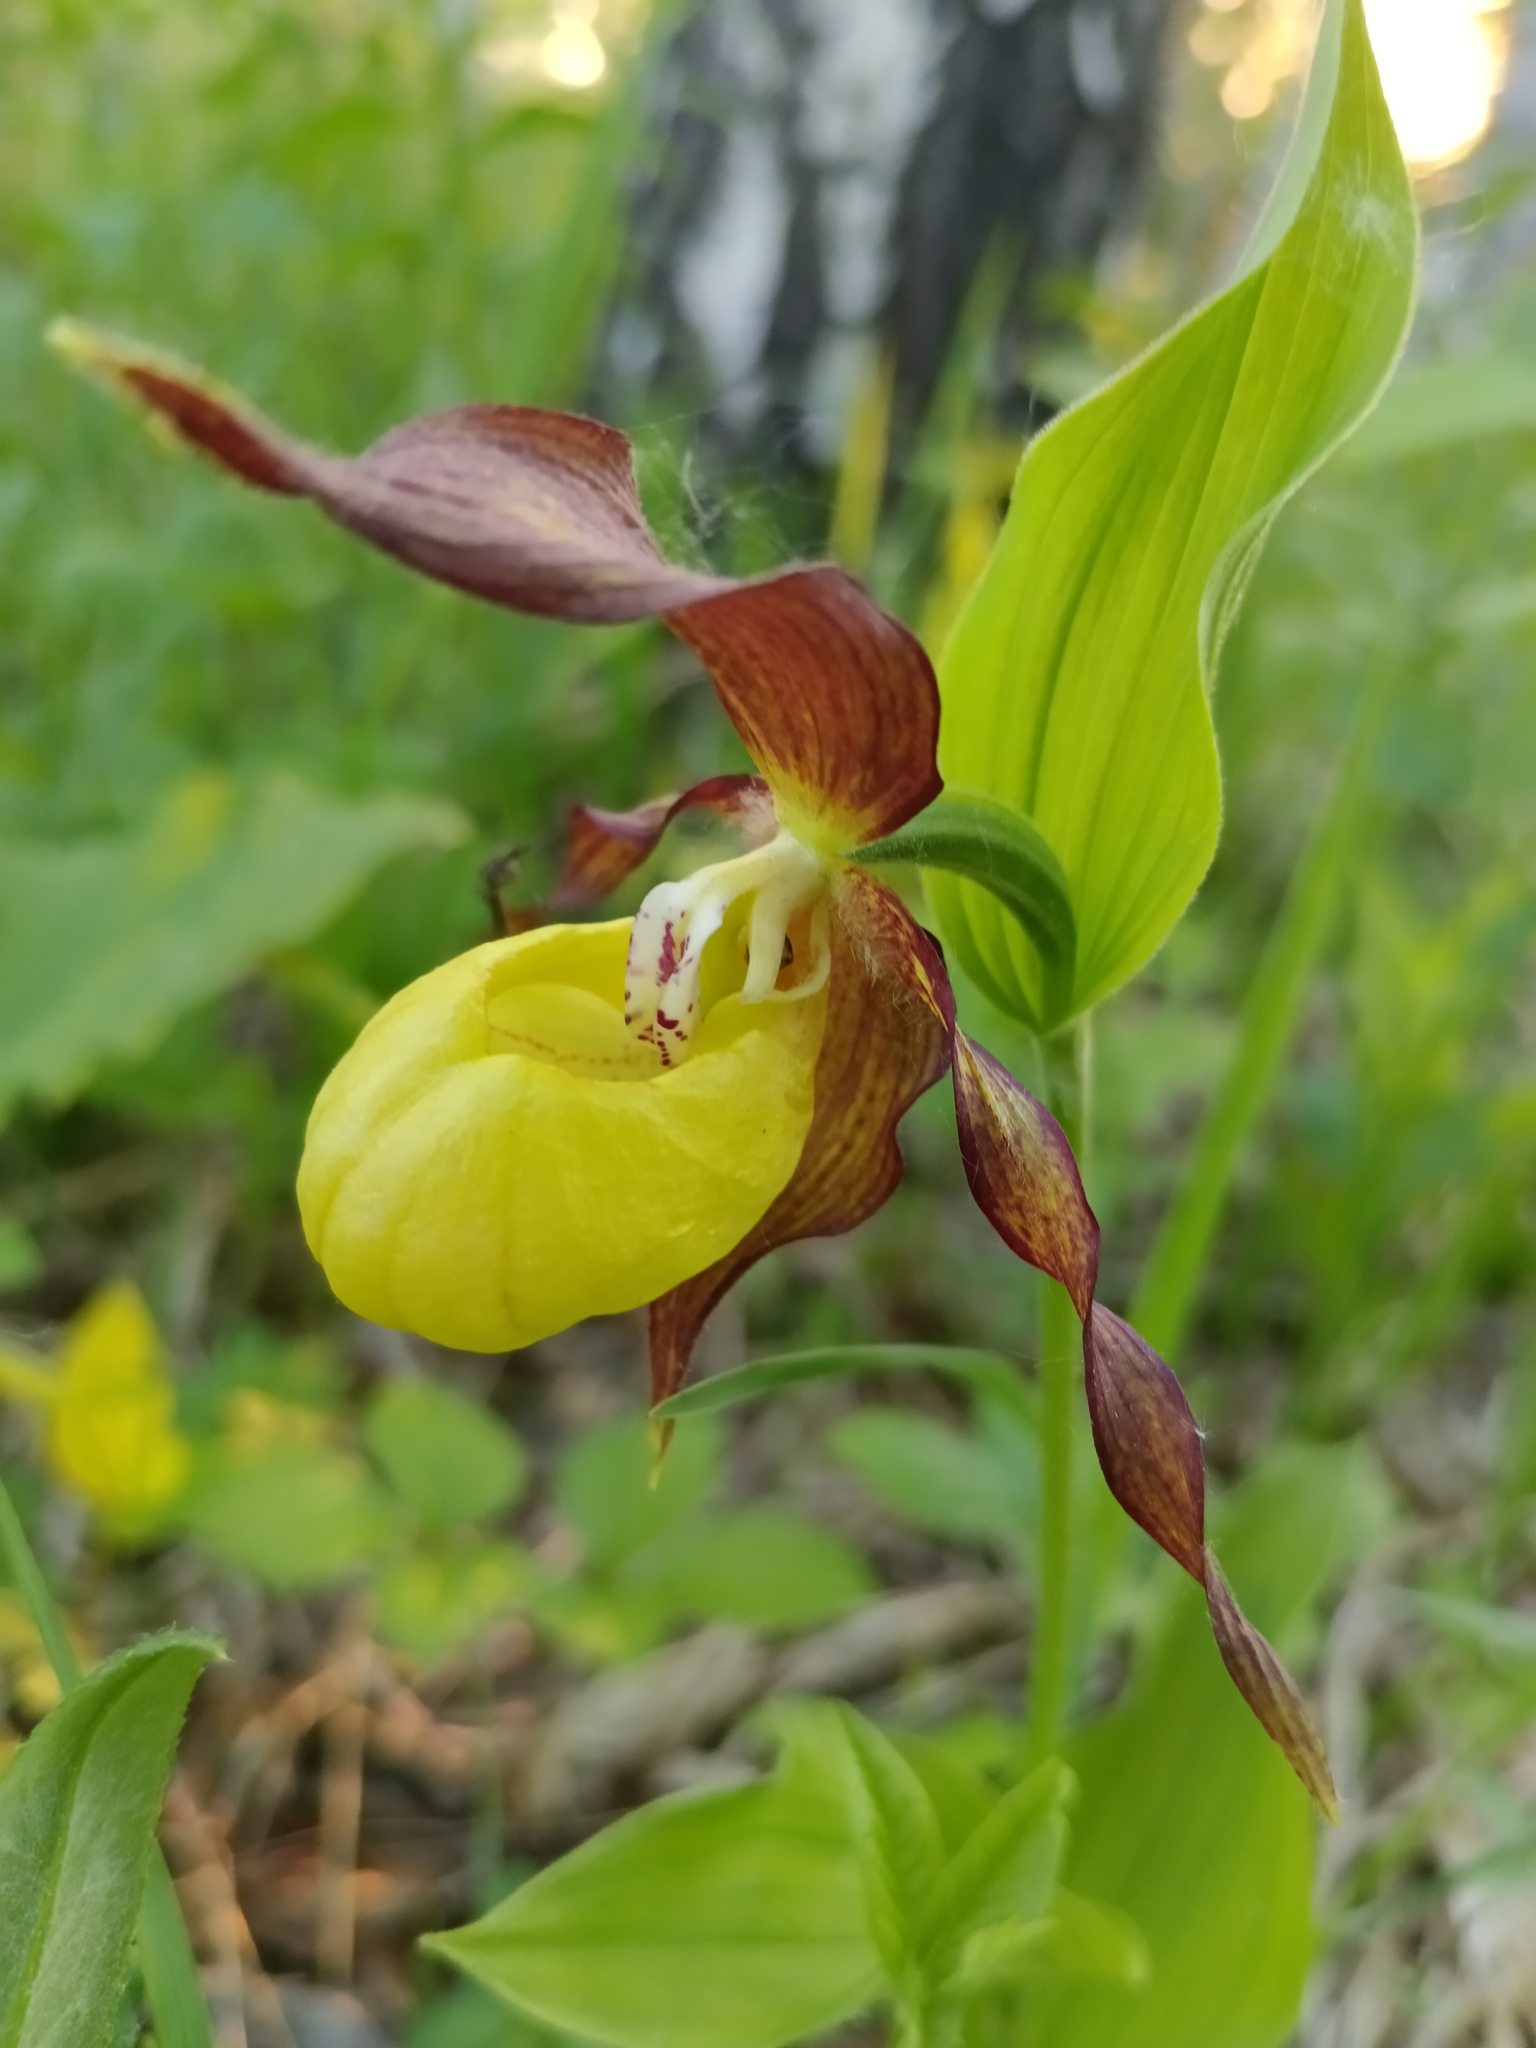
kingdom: Plantae
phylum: Tracheophyta
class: Liliopsida
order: Asparagales
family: Orchidaceae
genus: Cypripedium
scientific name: Cypripedium calceolus
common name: Lady's-slipper
